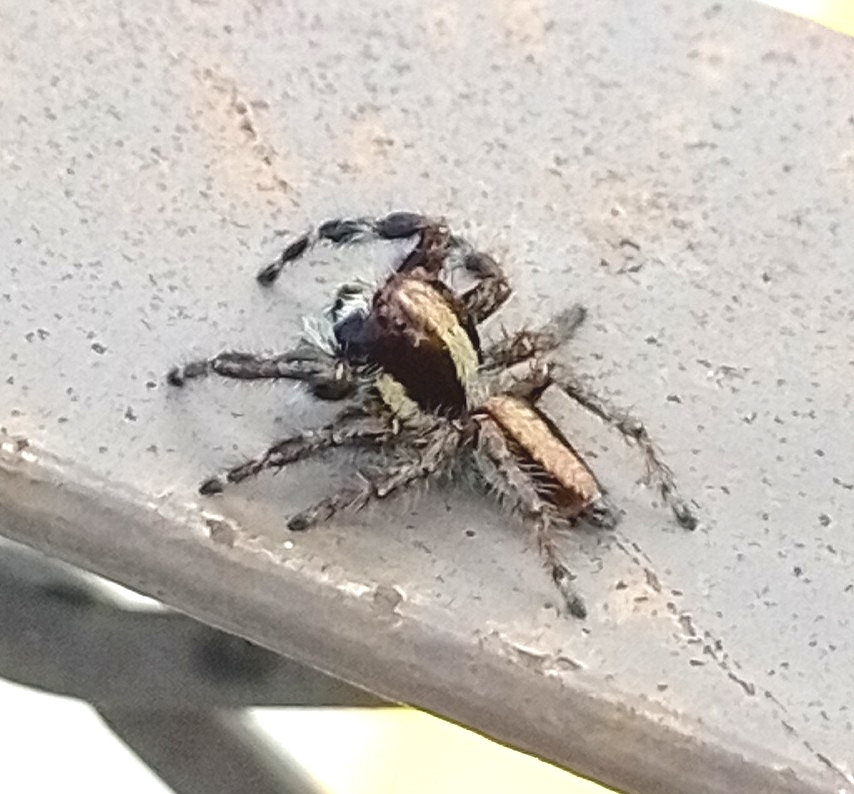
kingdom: Animalia
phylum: Arthropoda
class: Arachnida
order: Araneae
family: Salticidae
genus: Megafreya
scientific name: Megafreya sutrix
